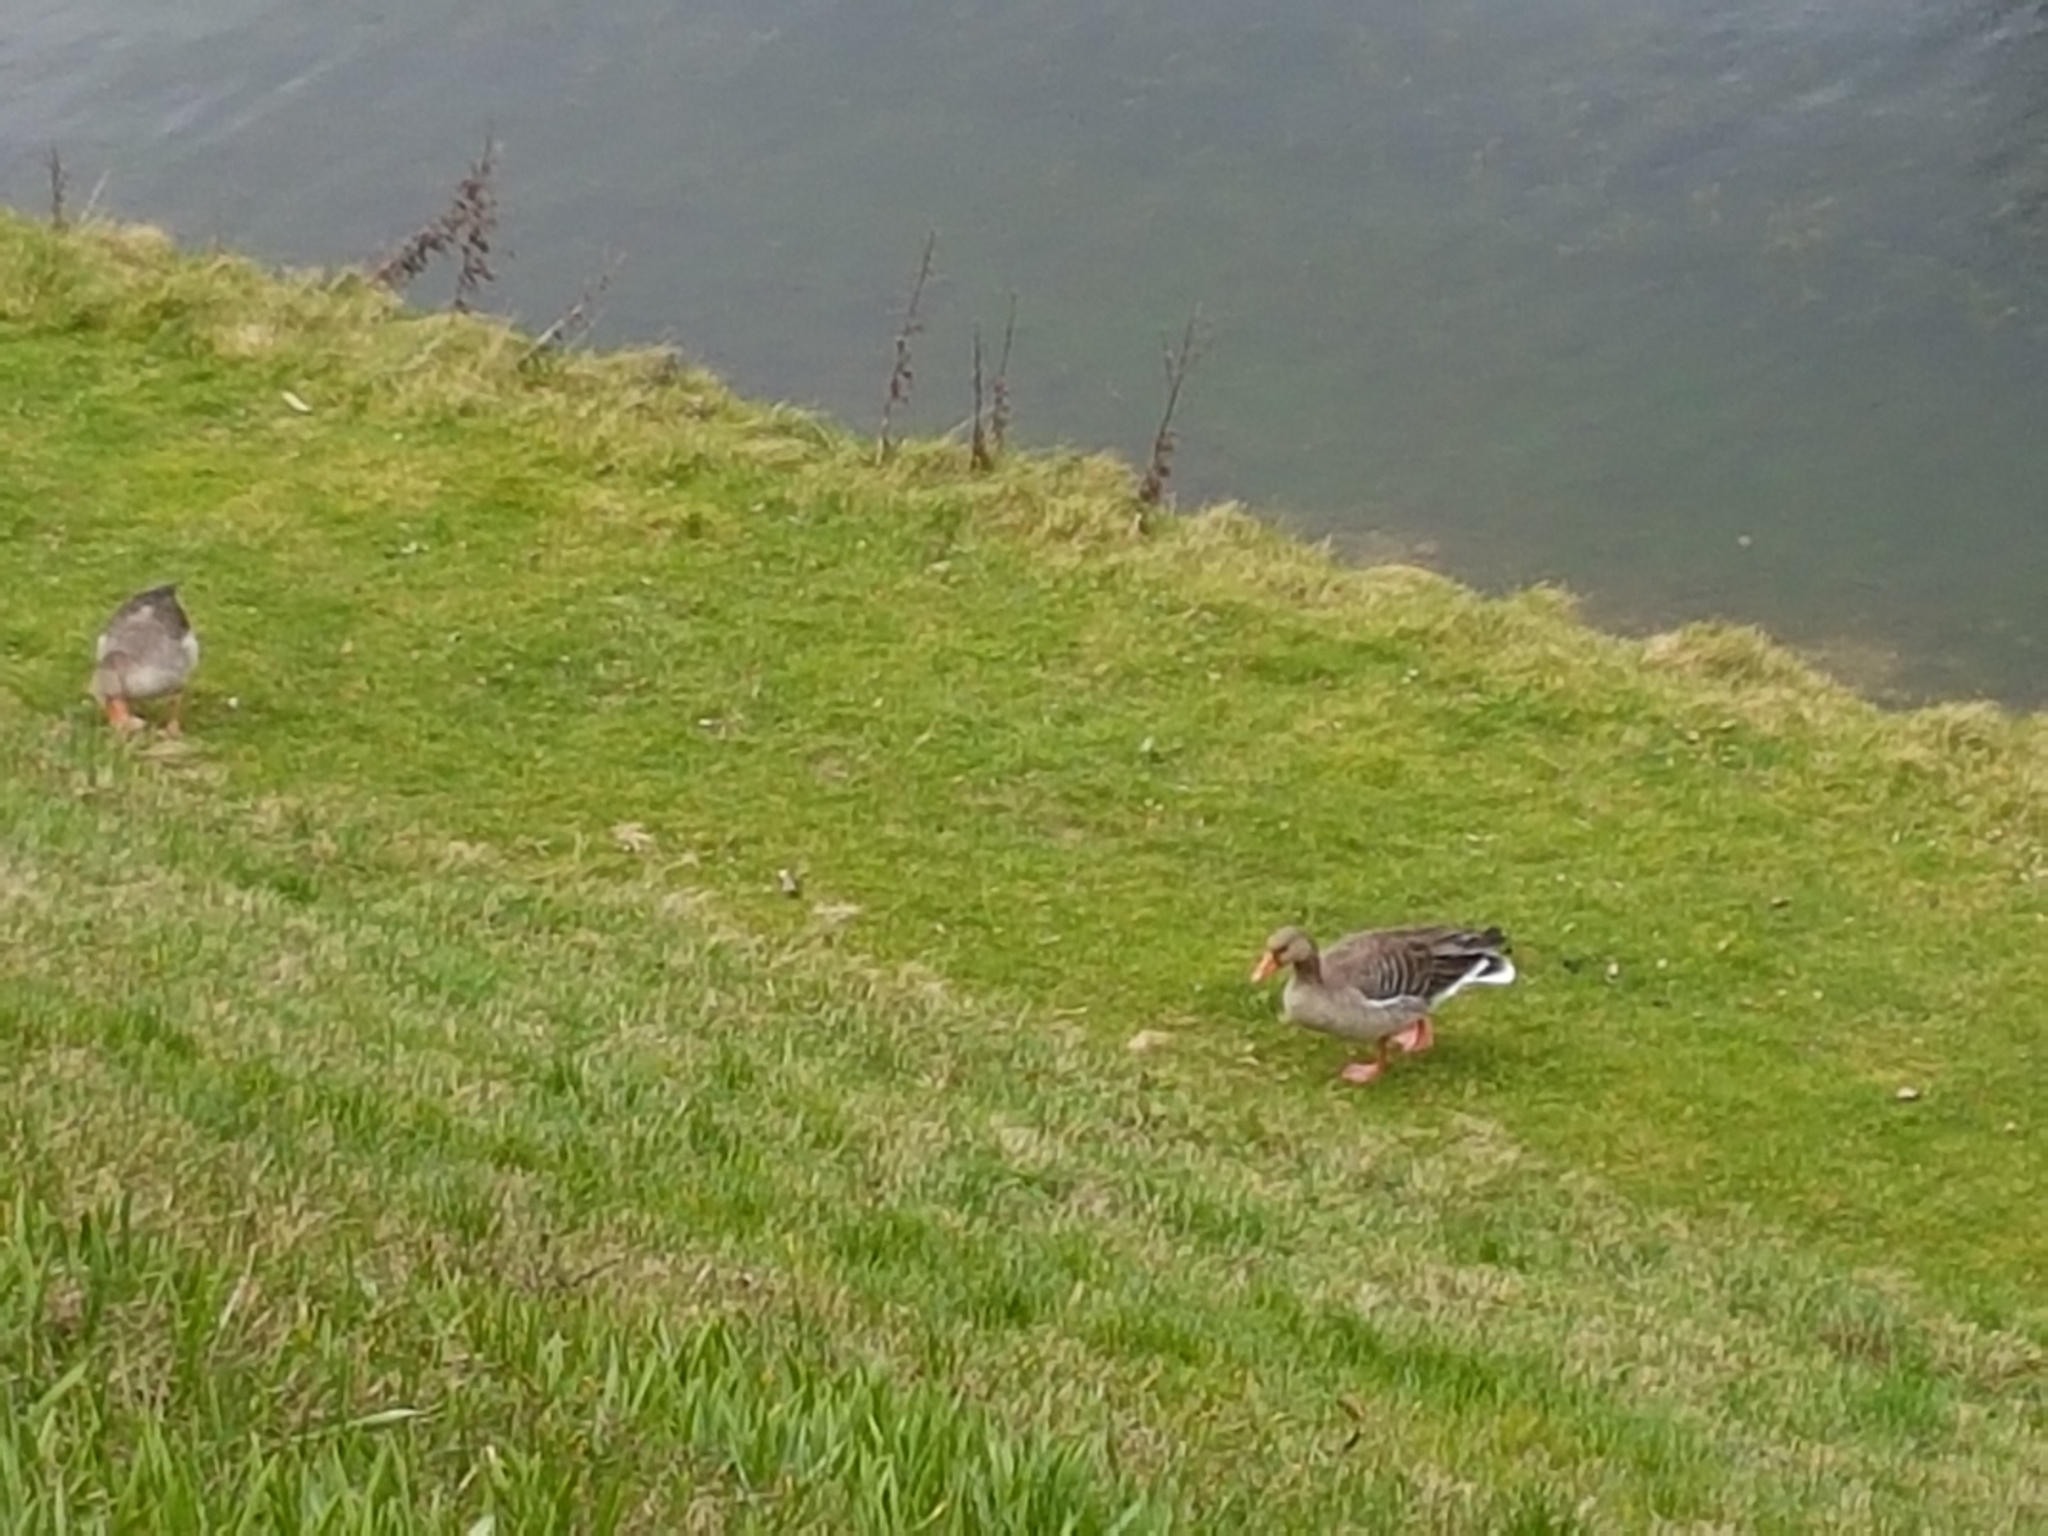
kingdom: Animalia
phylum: Chordata
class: Aves
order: Anseriformes
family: Anatidae
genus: Anser
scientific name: Anser anser
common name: Greylag goose
